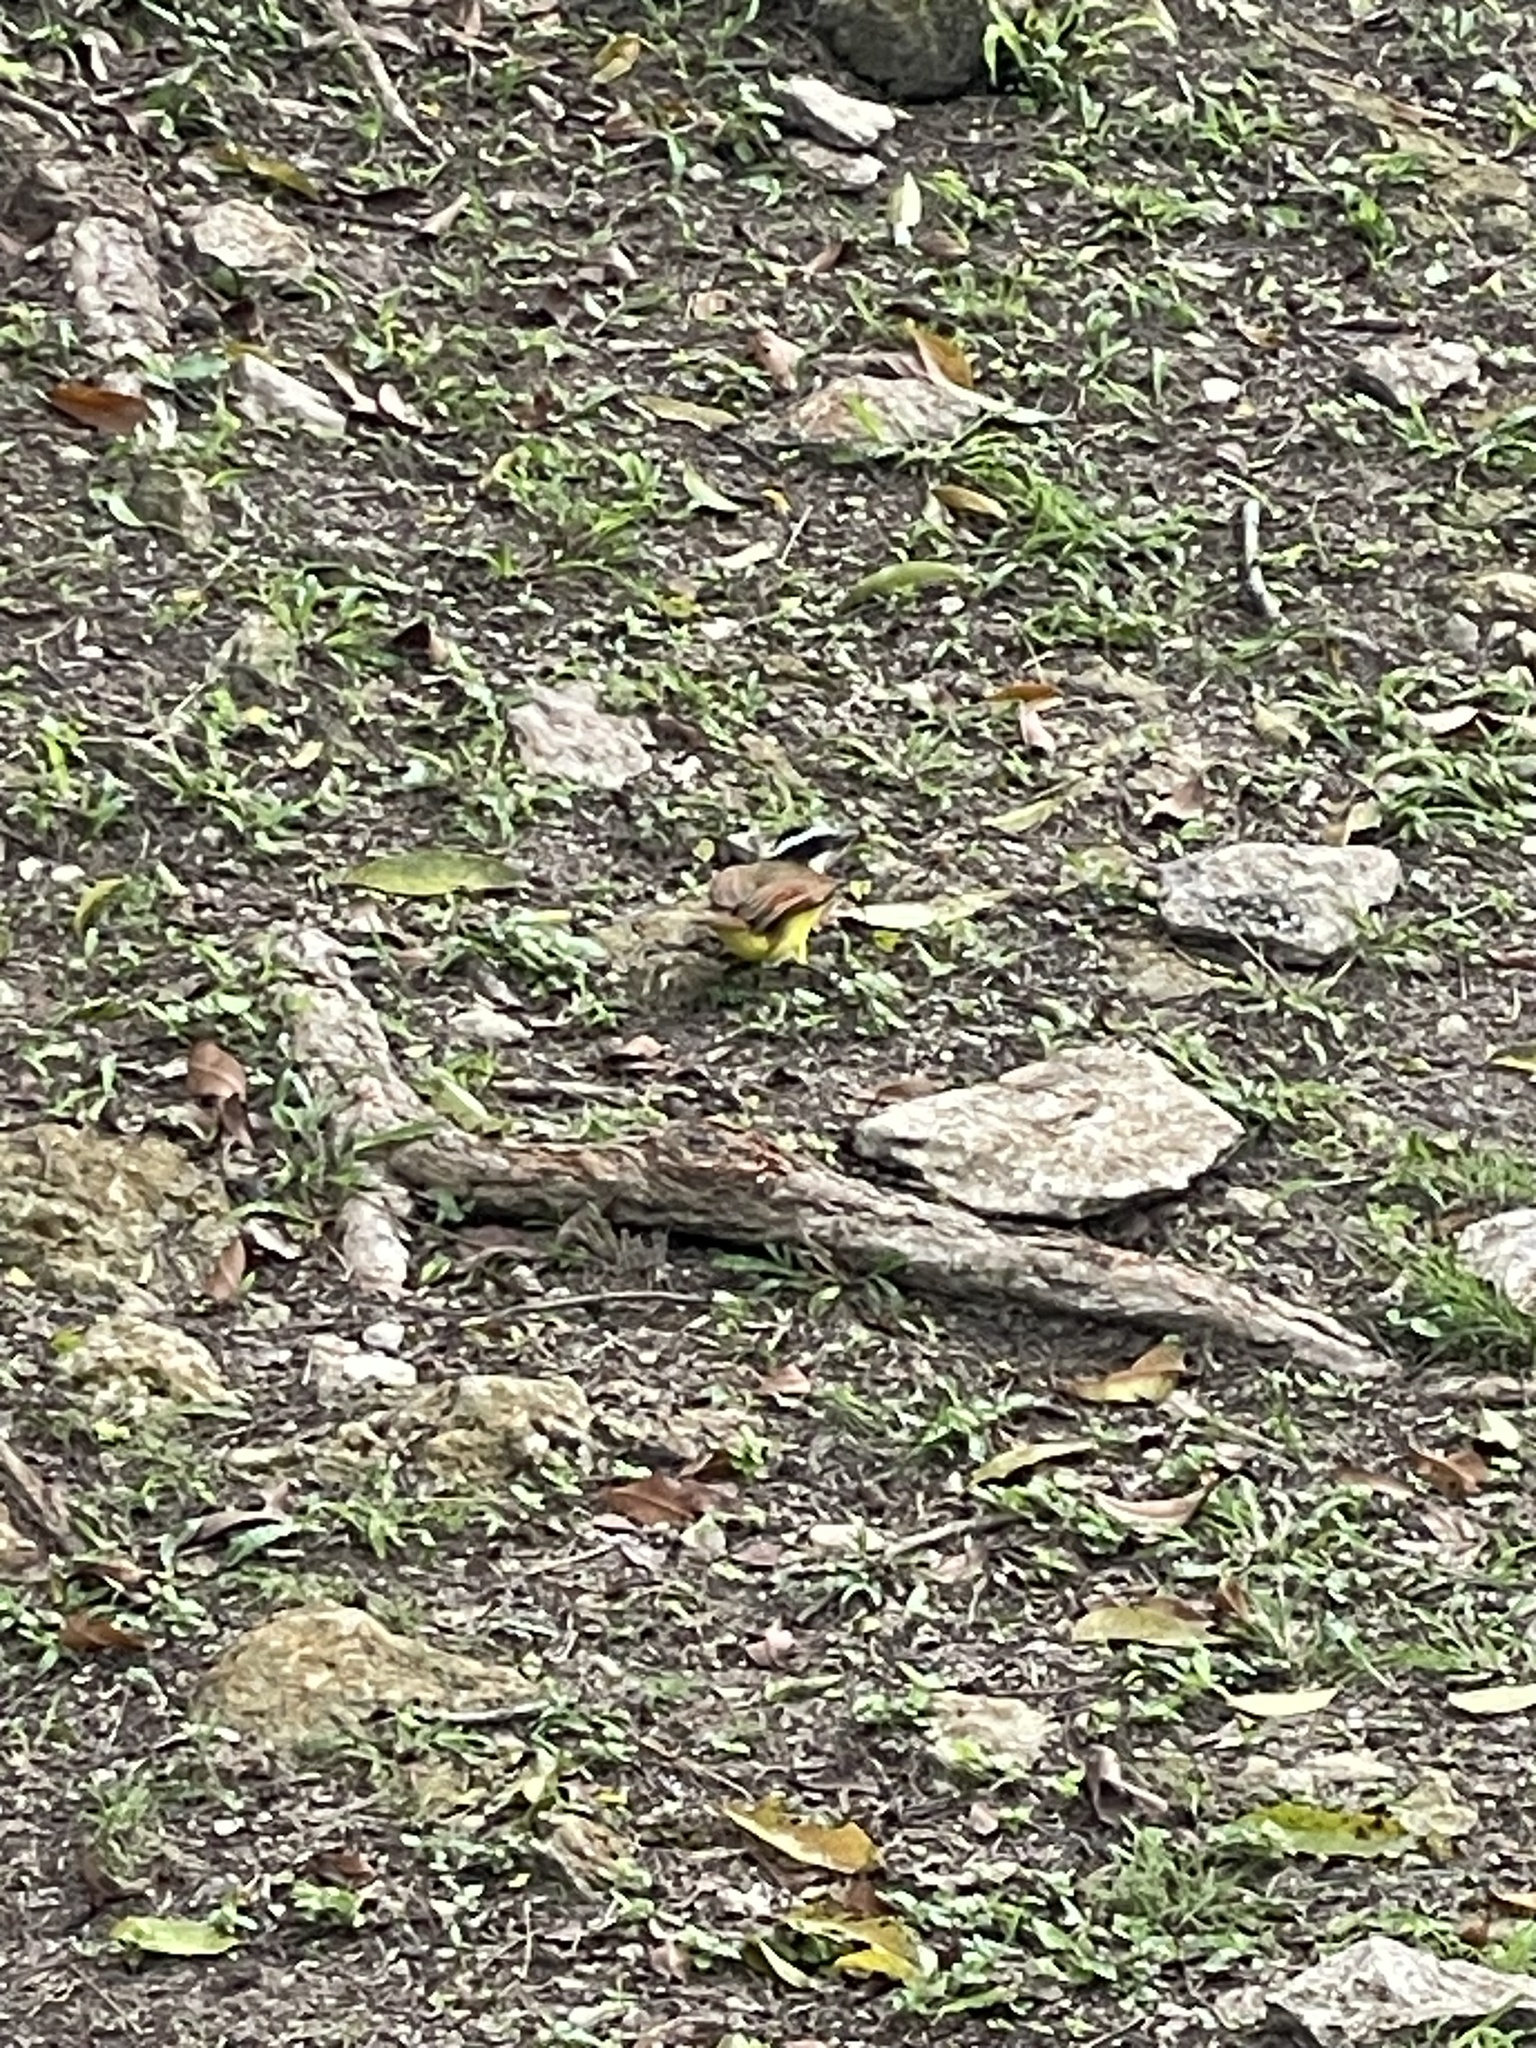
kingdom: Animalia
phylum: Chordata
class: Aves
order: Passeriformes
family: Tyrannidae
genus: Pitangus
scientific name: Pitangus sulphuratus
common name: Great kiskadee
